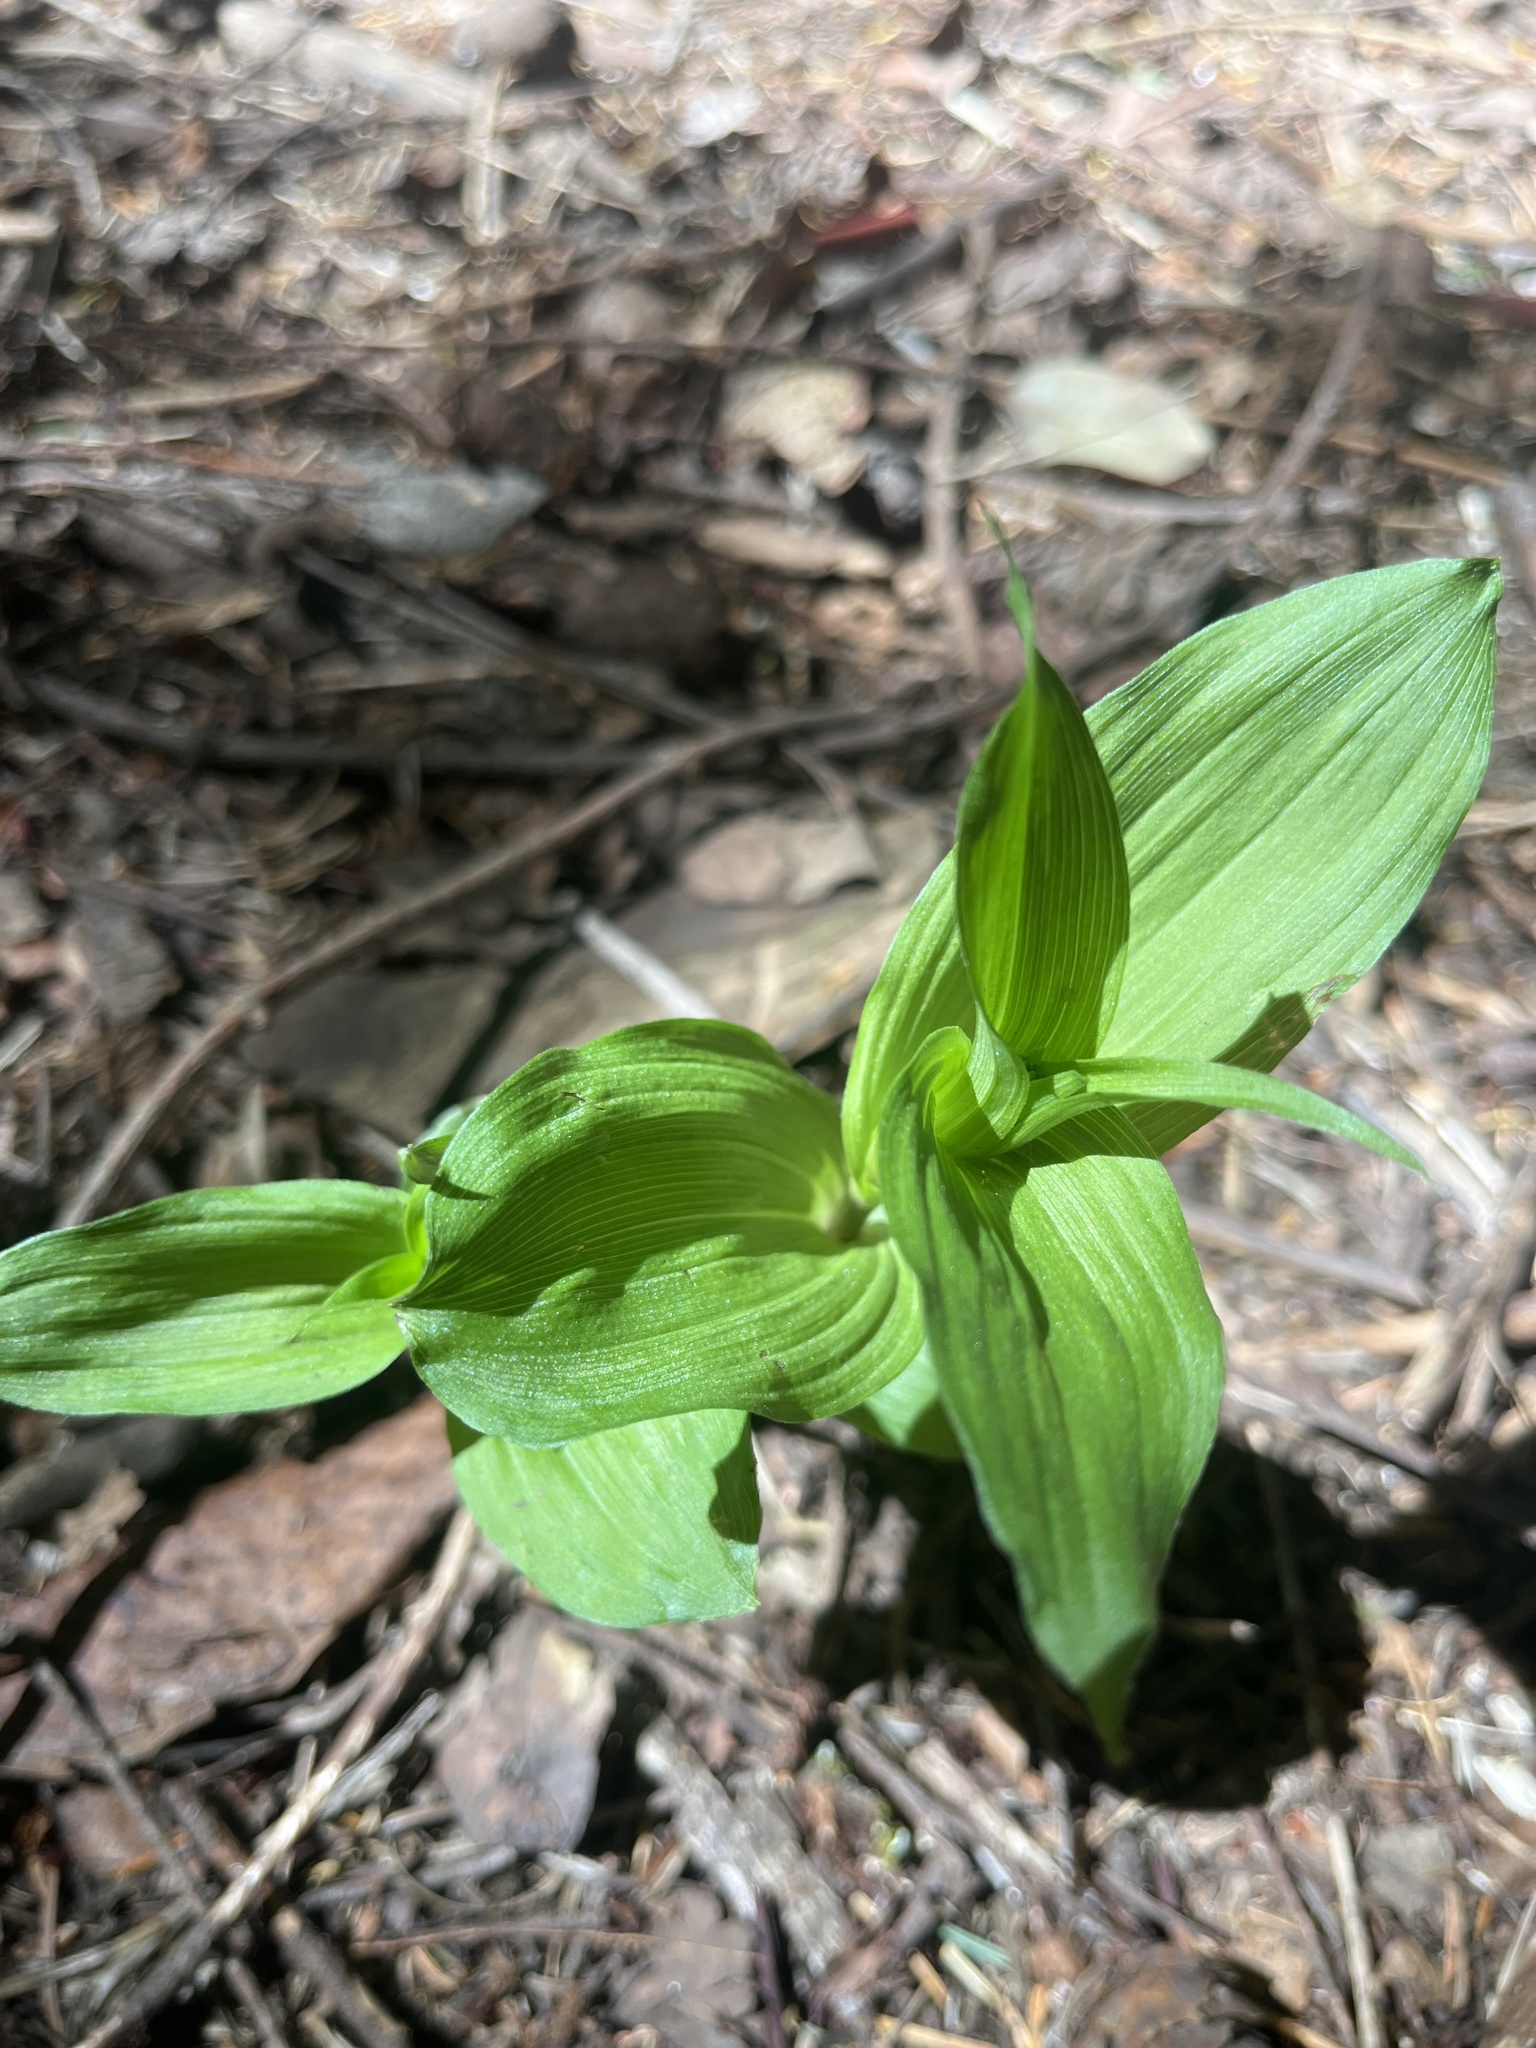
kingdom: Plantae
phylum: Tracheophyta
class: Liliopsida
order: Asparagales
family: Orchidaceae
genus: Epipactis
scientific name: Epipactis helleborine
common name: Broad-leaved helleborine
